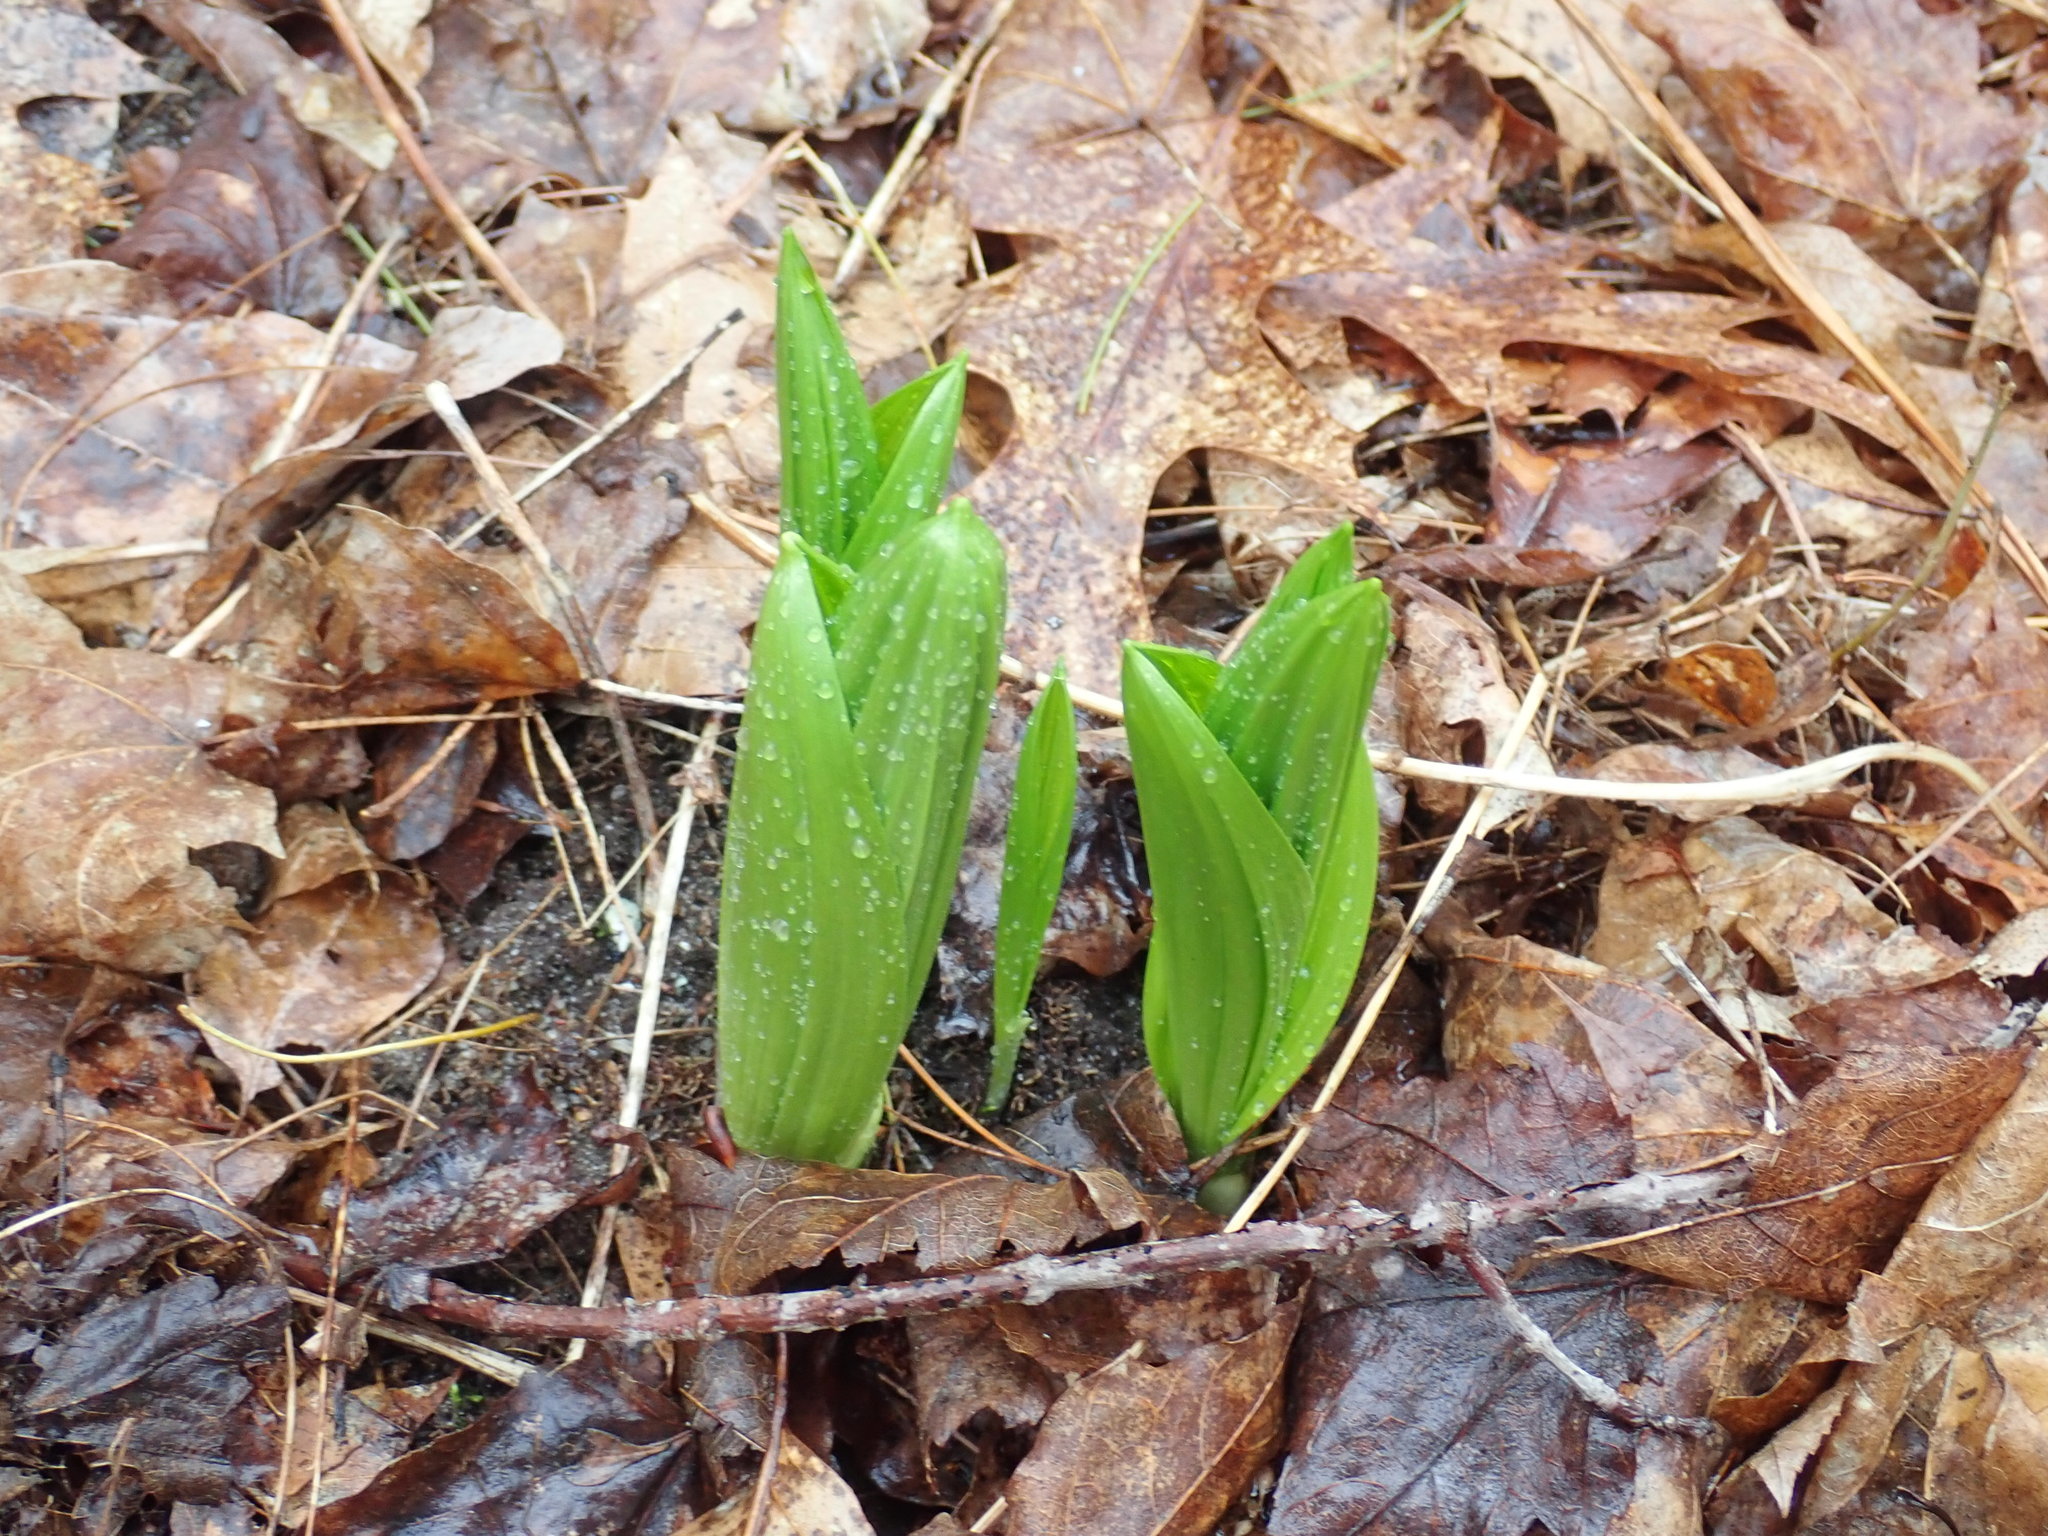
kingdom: Plantae
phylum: Tracheophyta
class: Liliopsida
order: Liliales
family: Melanthiaceae
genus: Veratrum
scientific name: Veratrum viride
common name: American false hellebore
